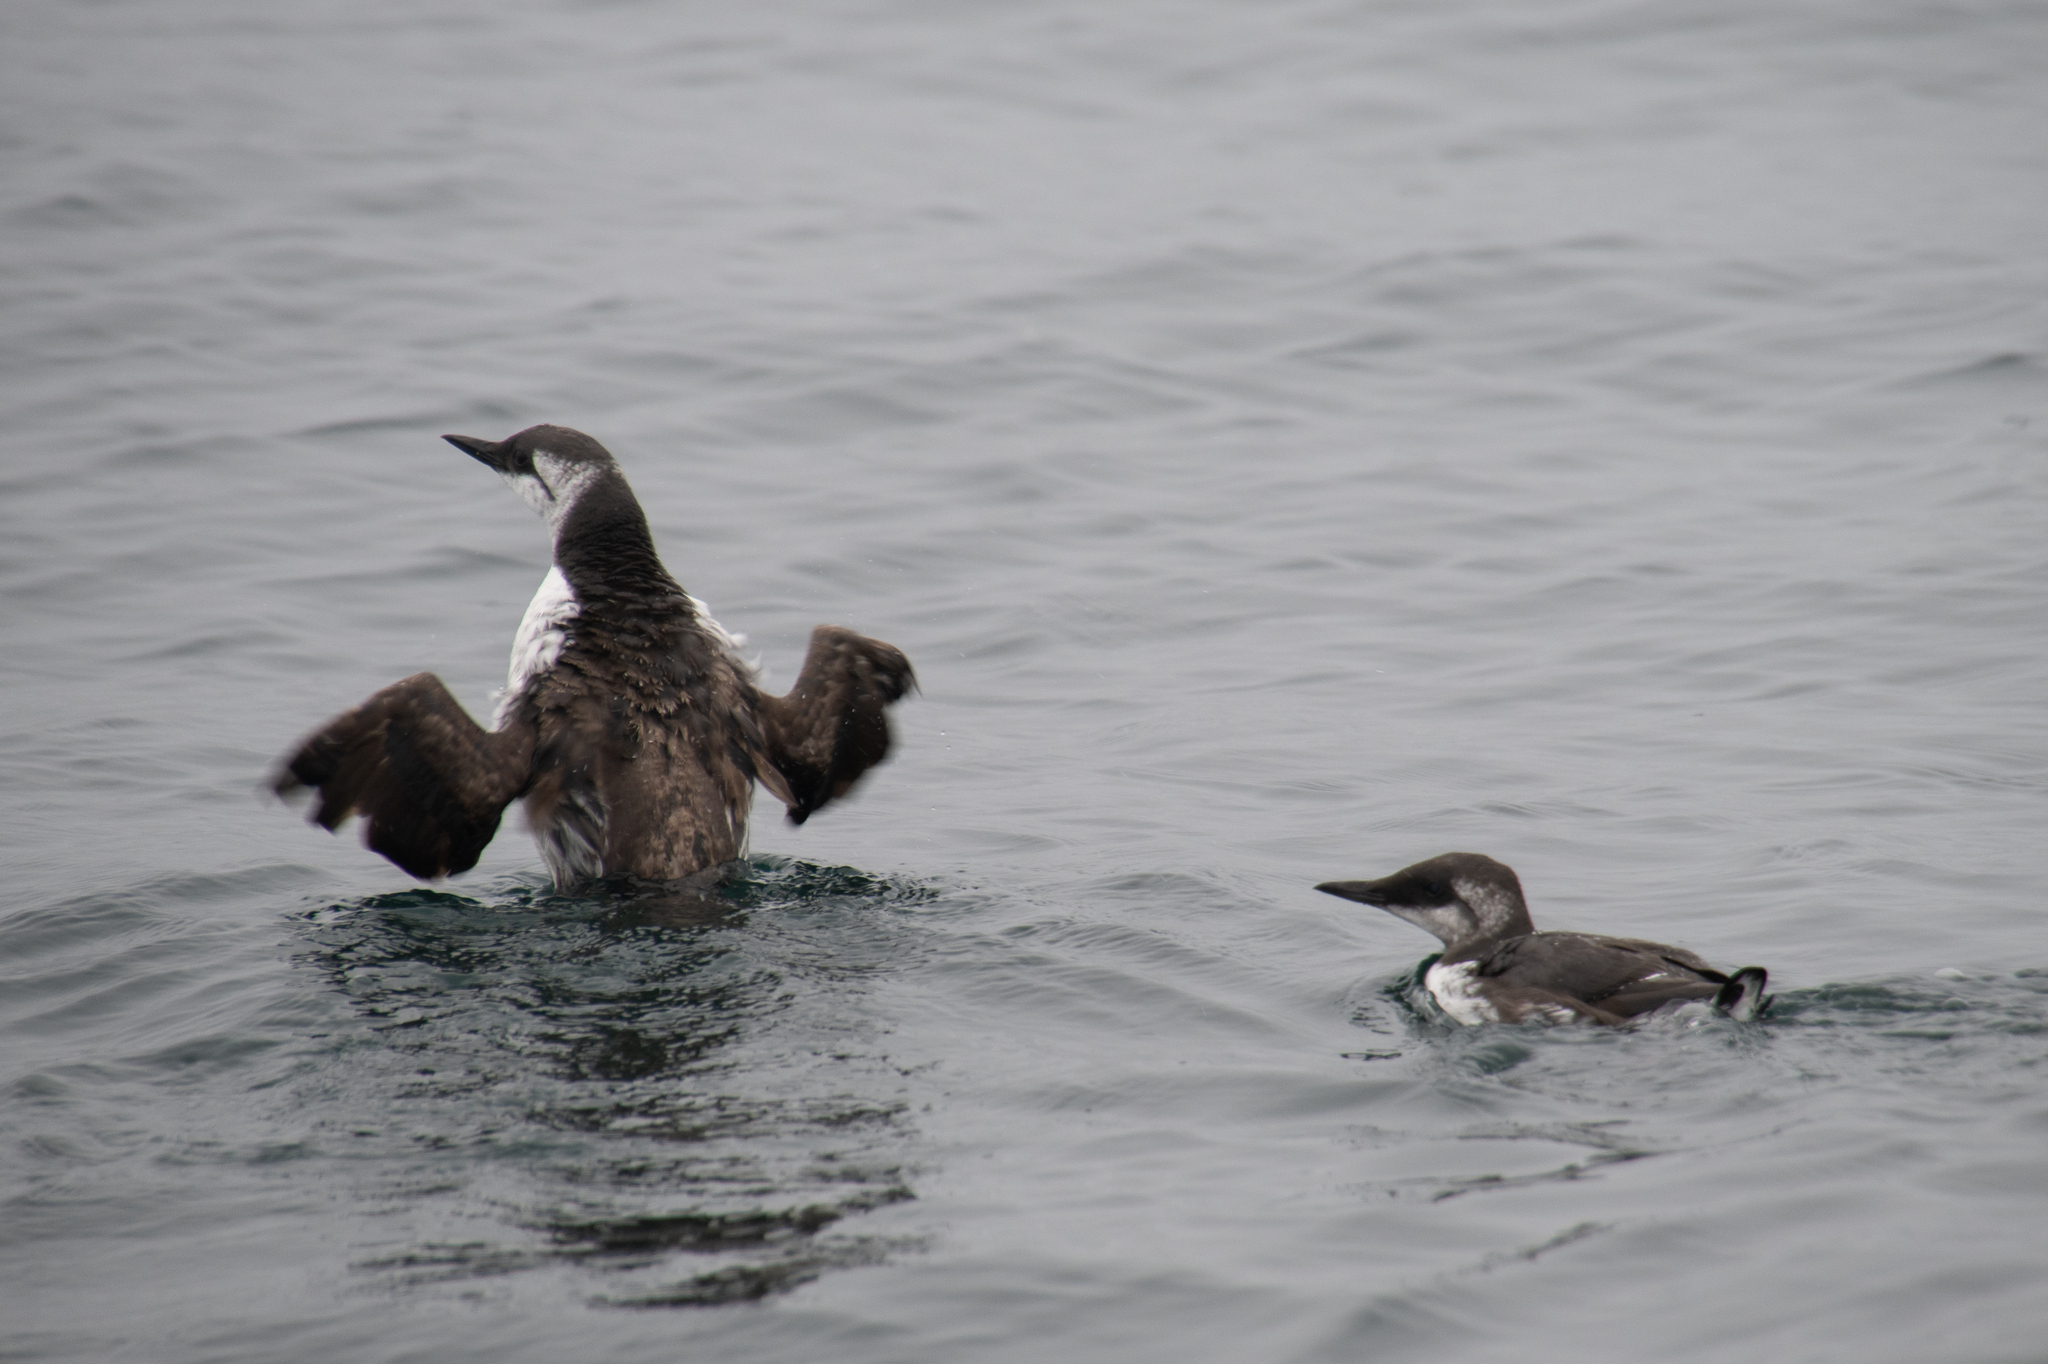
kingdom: Animalia
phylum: Chordata
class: Aves
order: Charadriiformes
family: Alcidae
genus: Uria
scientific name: Uria aalge
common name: Common murre
